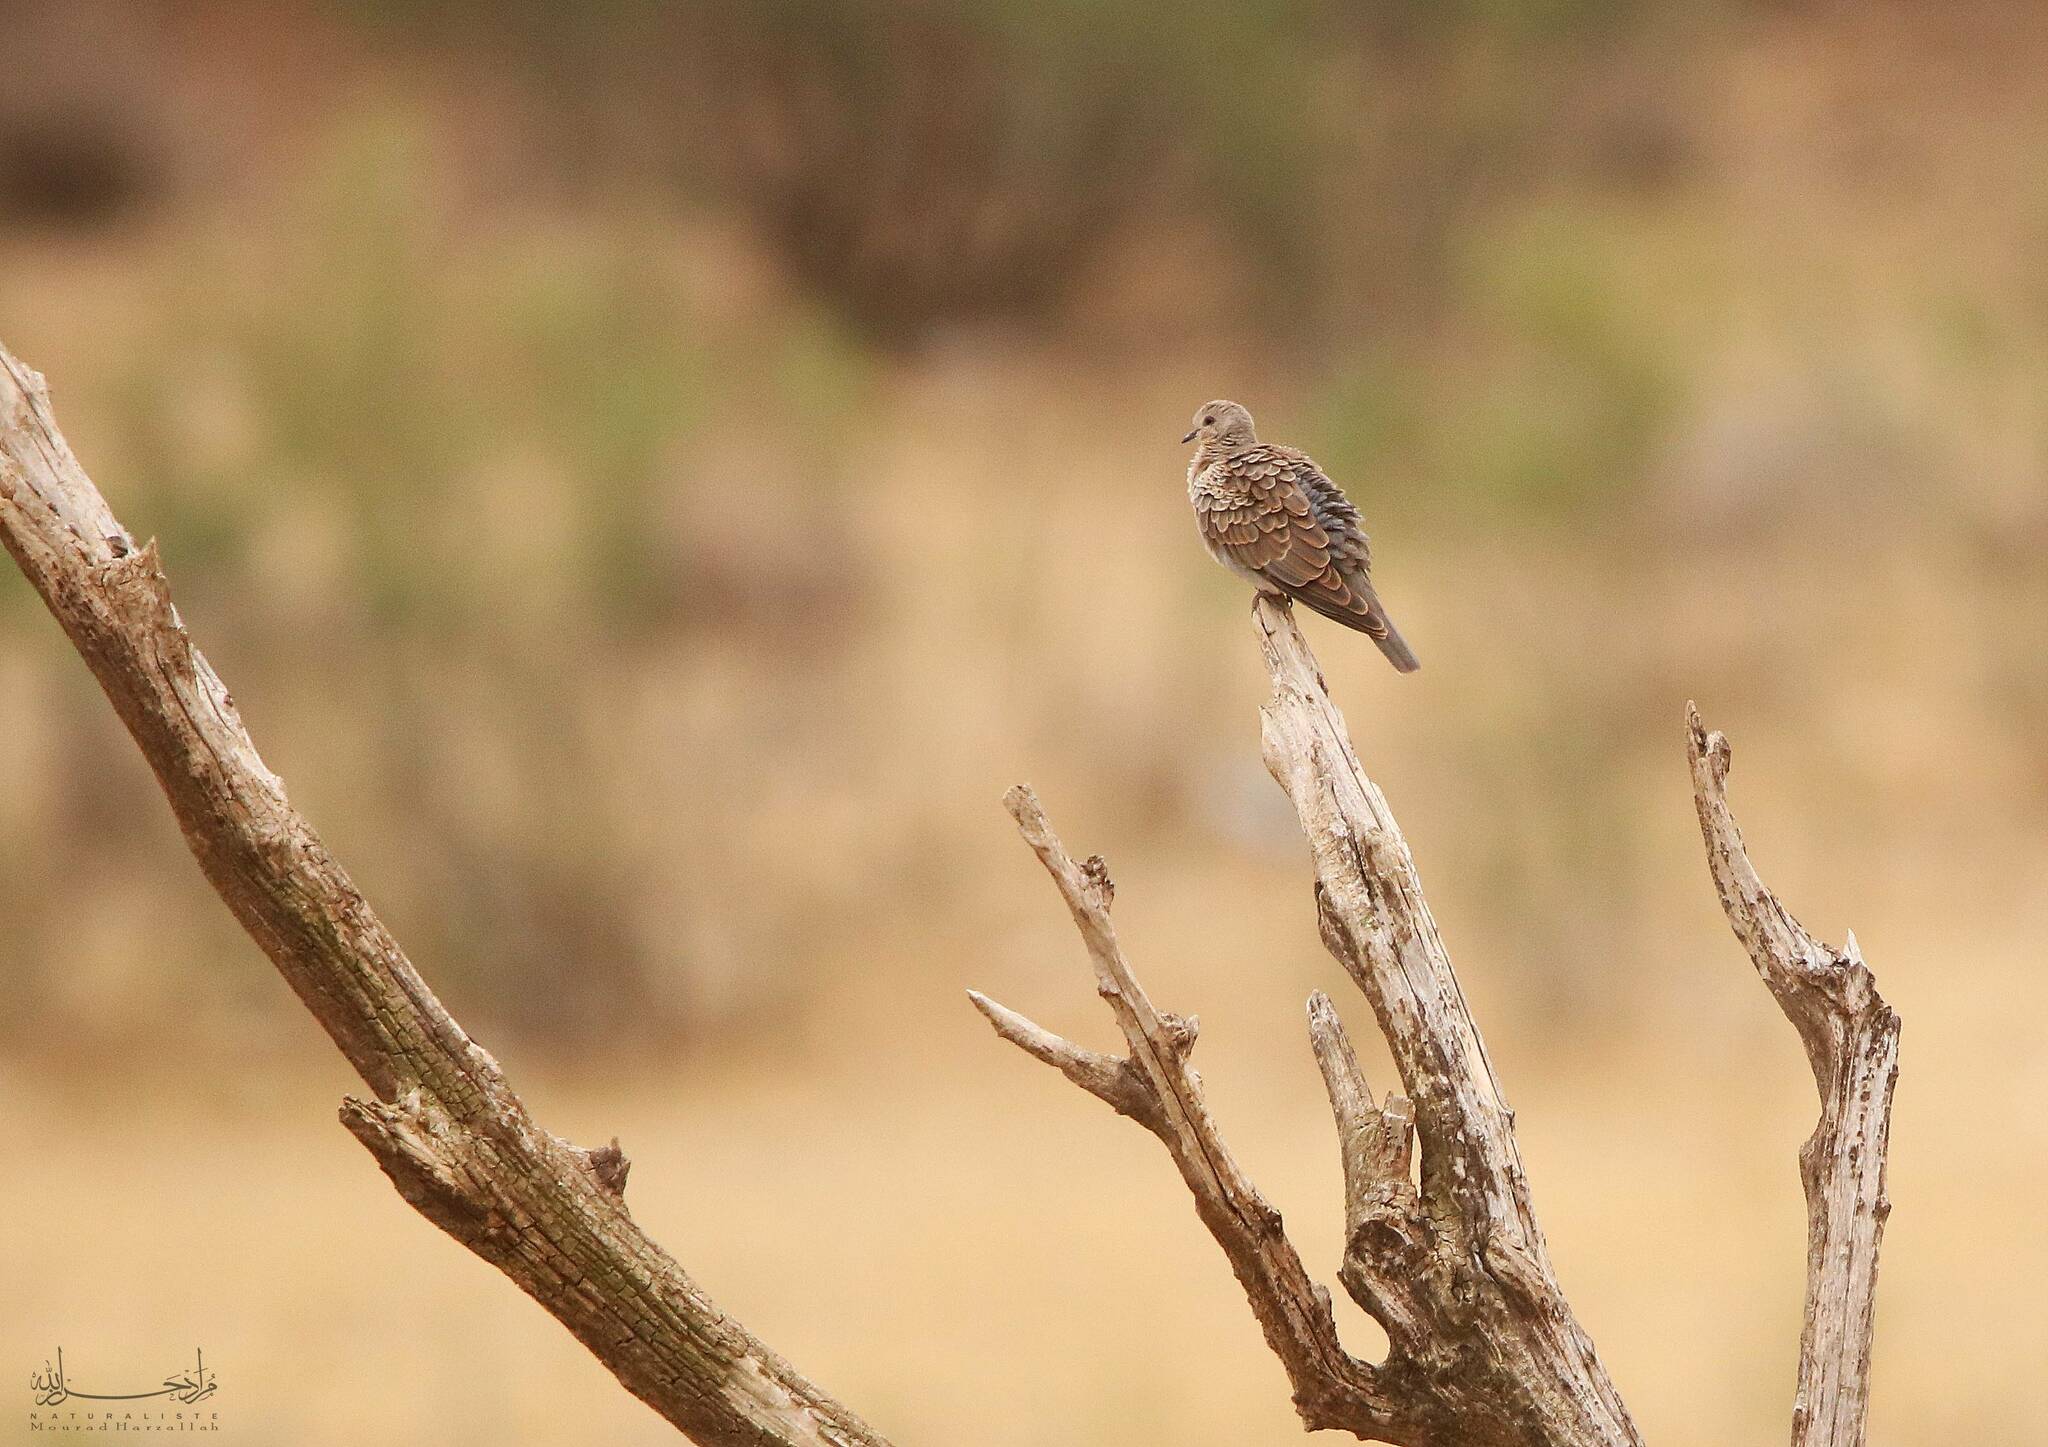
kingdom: Animalia
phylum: Chordata
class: Aves
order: Columbiformes
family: Columbidae
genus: Streptopelia
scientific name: Streptopelia turtur
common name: European turtle dove
